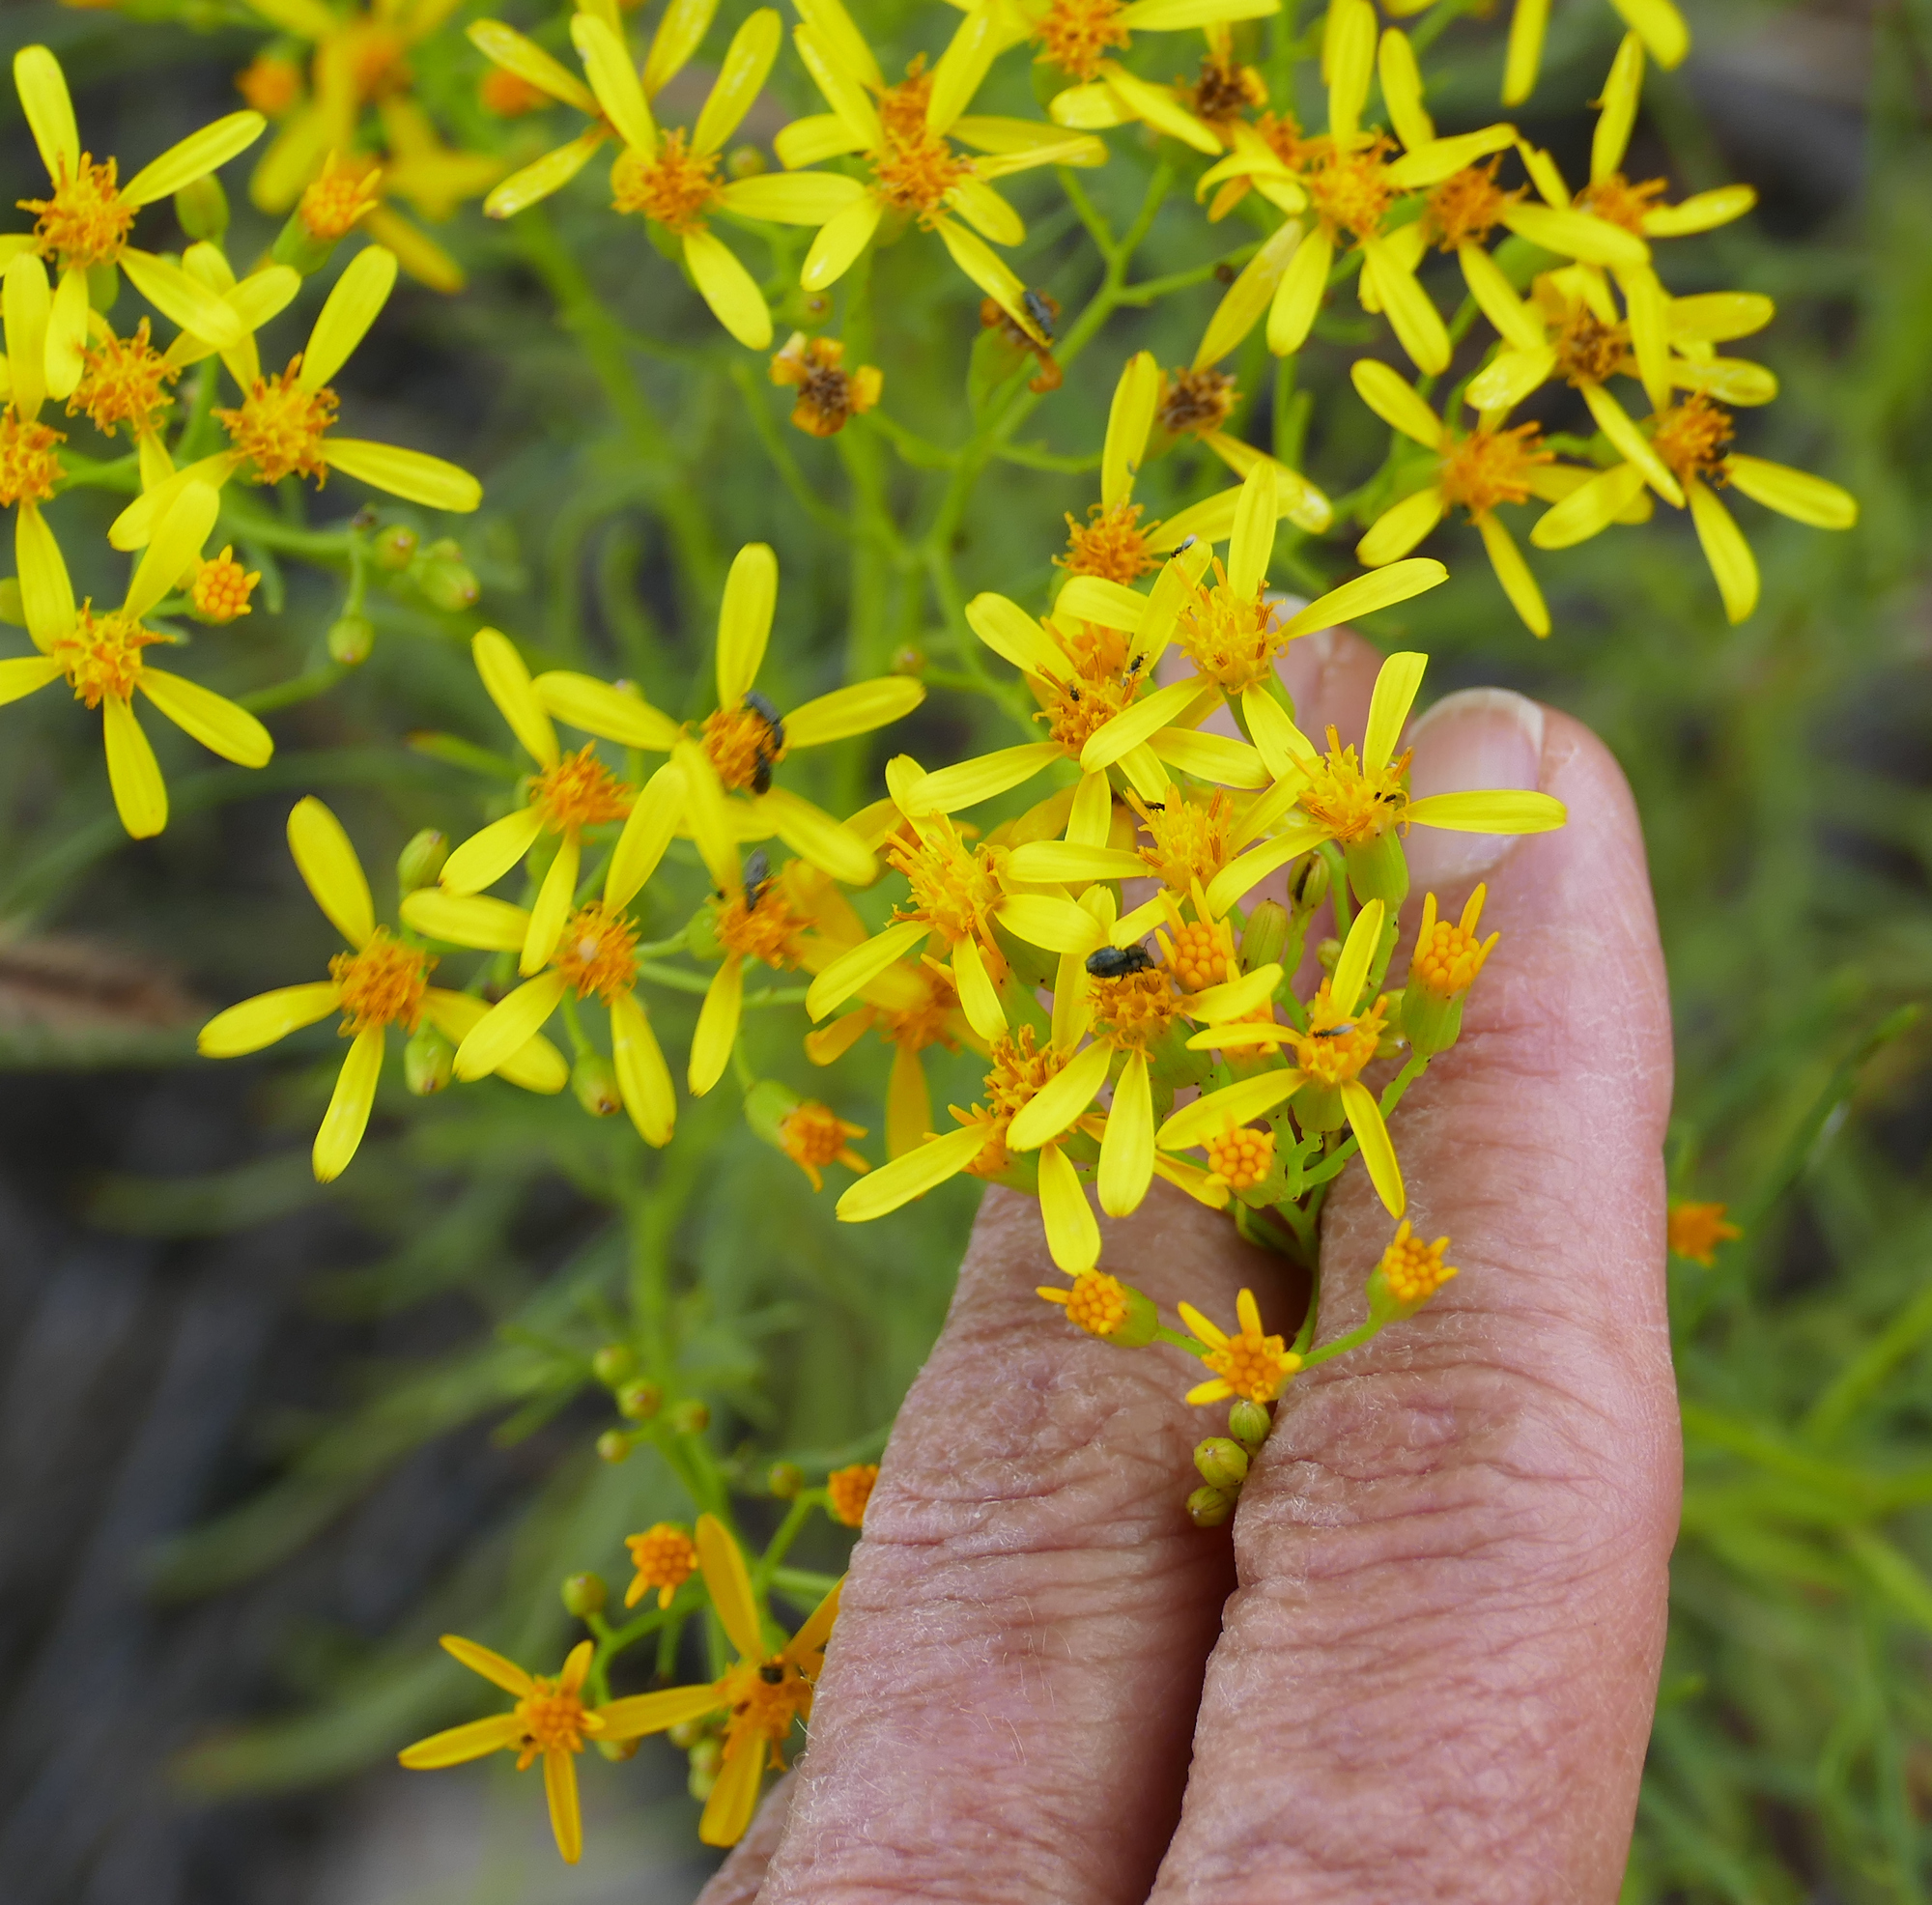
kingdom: Plantae
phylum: Tracheophyta
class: Magnoliopsida
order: Asterales
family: Asteraceae
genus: Senecio
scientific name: Senecio spartioides
